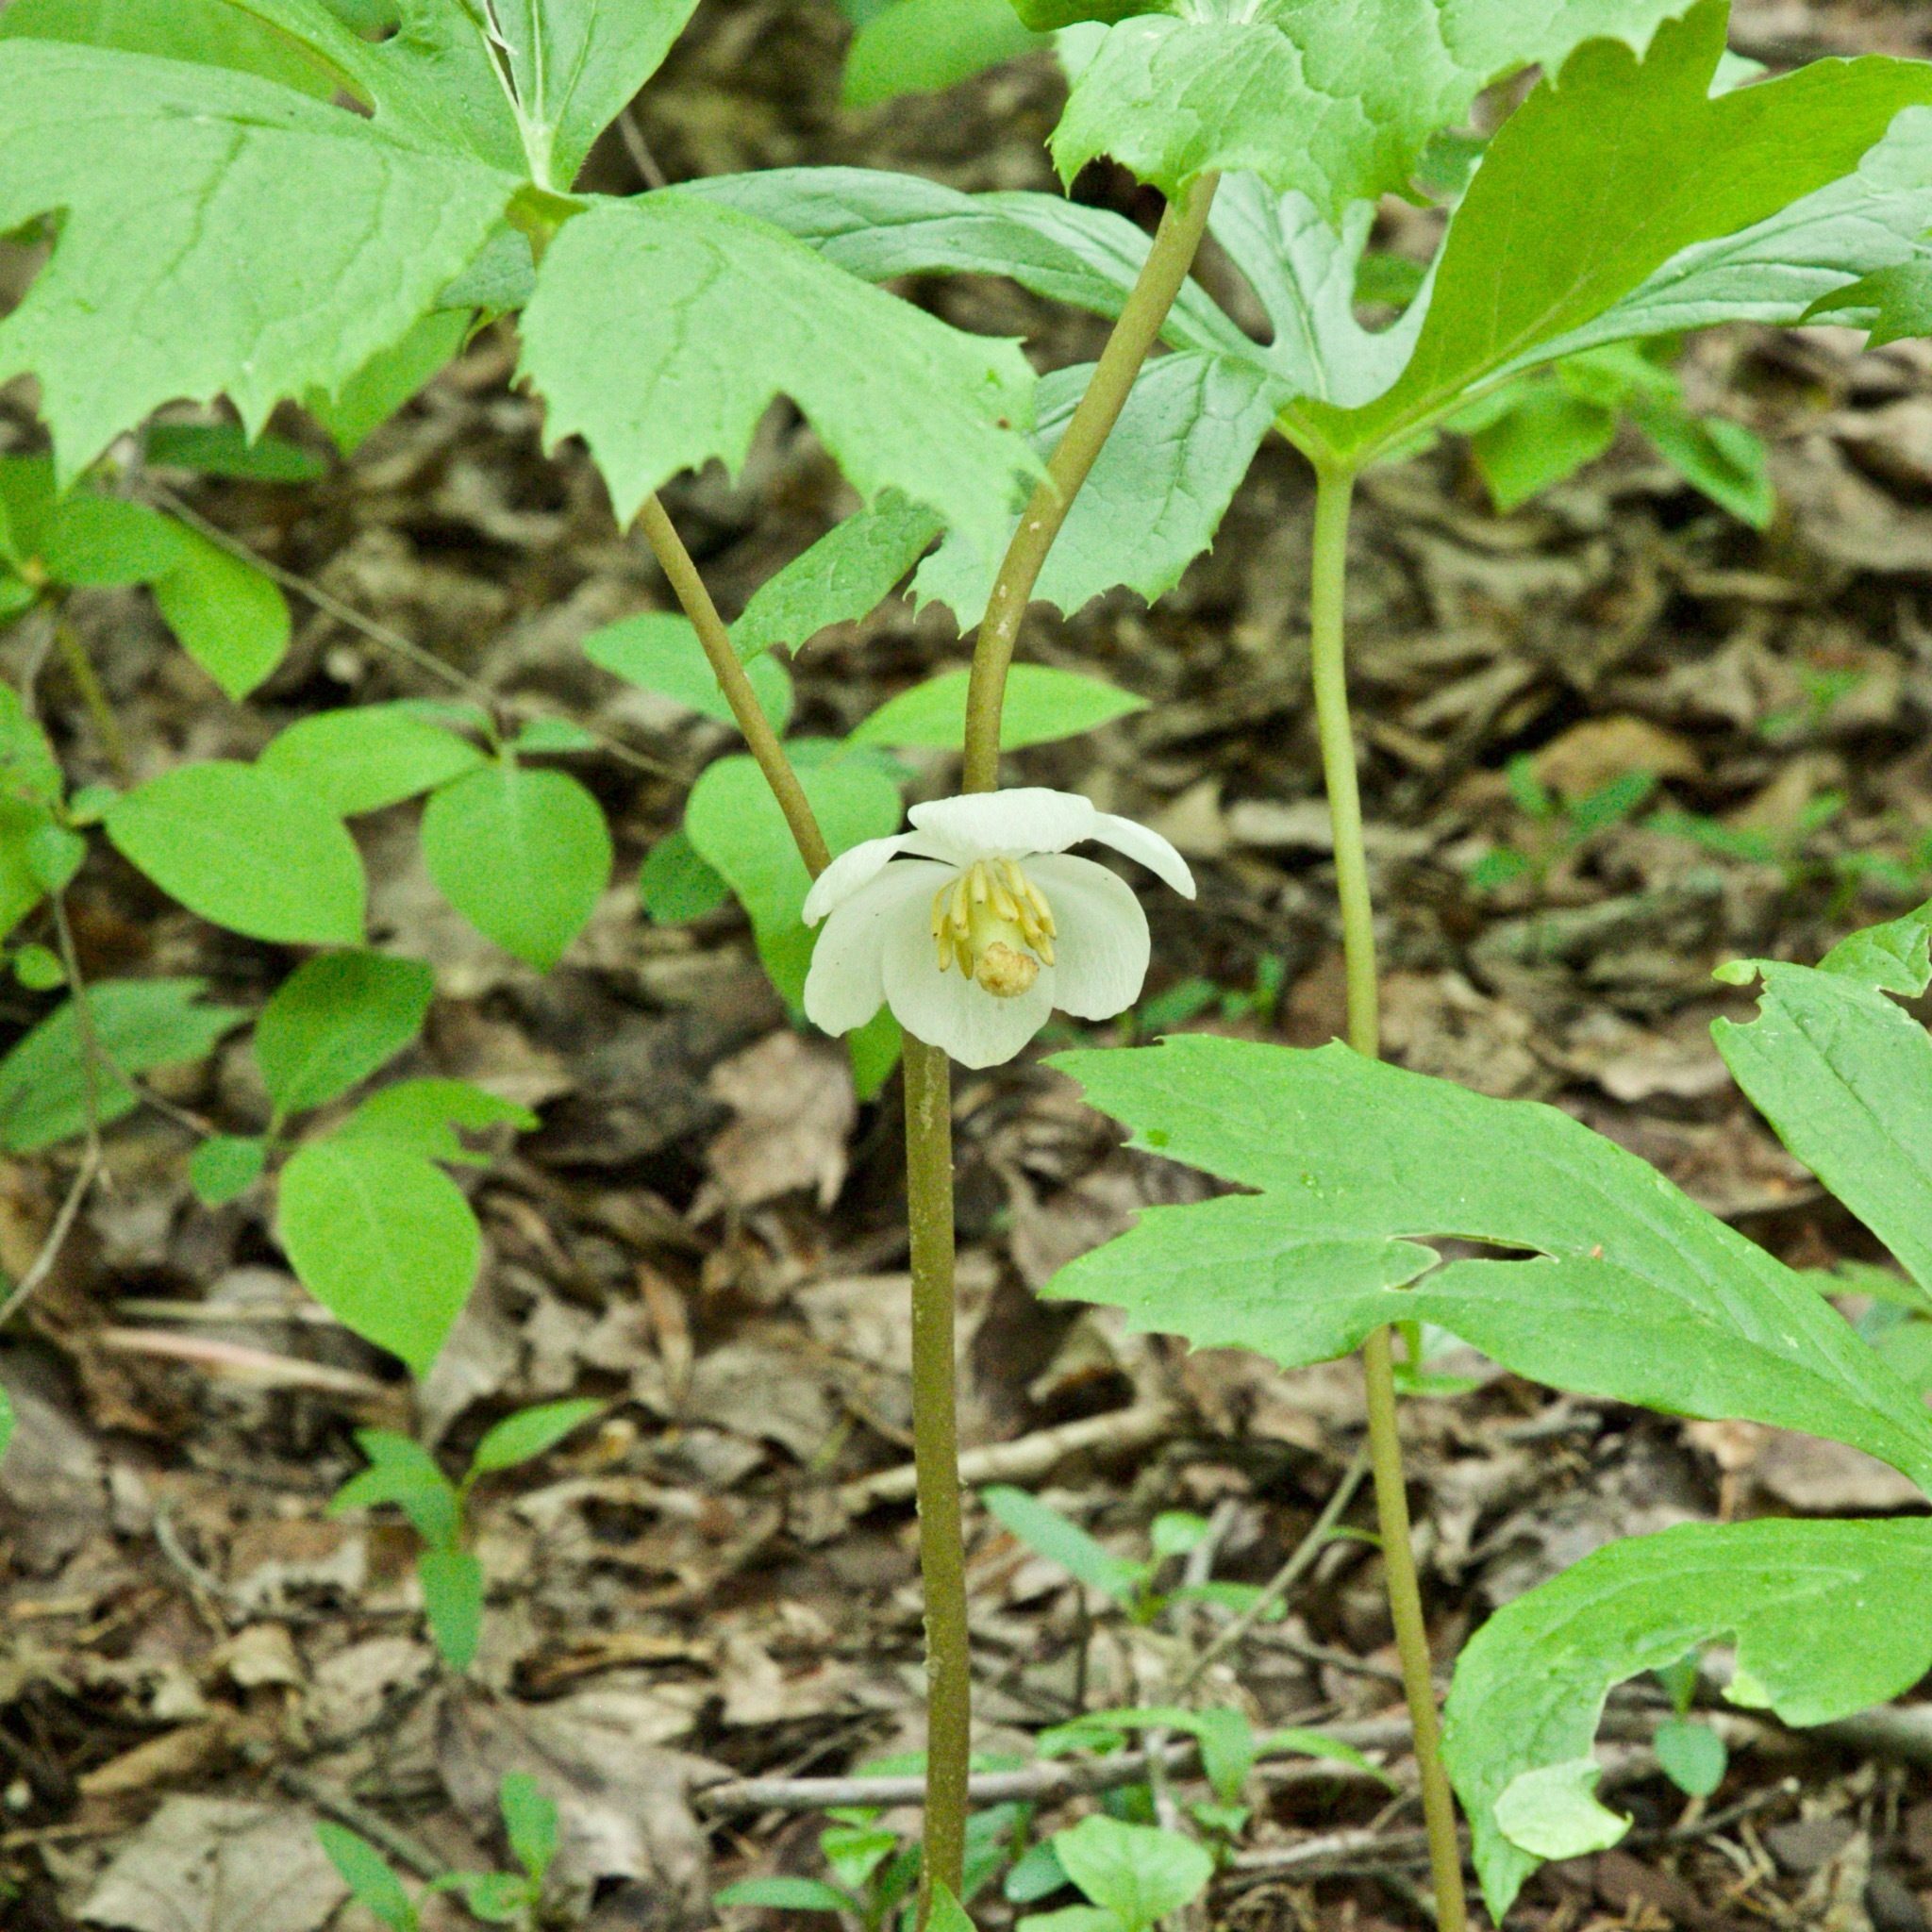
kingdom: Plantae
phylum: Tracheophyta
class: Magnoliopsida
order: Ranunculales
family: Berberidaceae
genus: Podophyllum
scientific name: Podophyllum peltatum
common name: Wild mandrake
